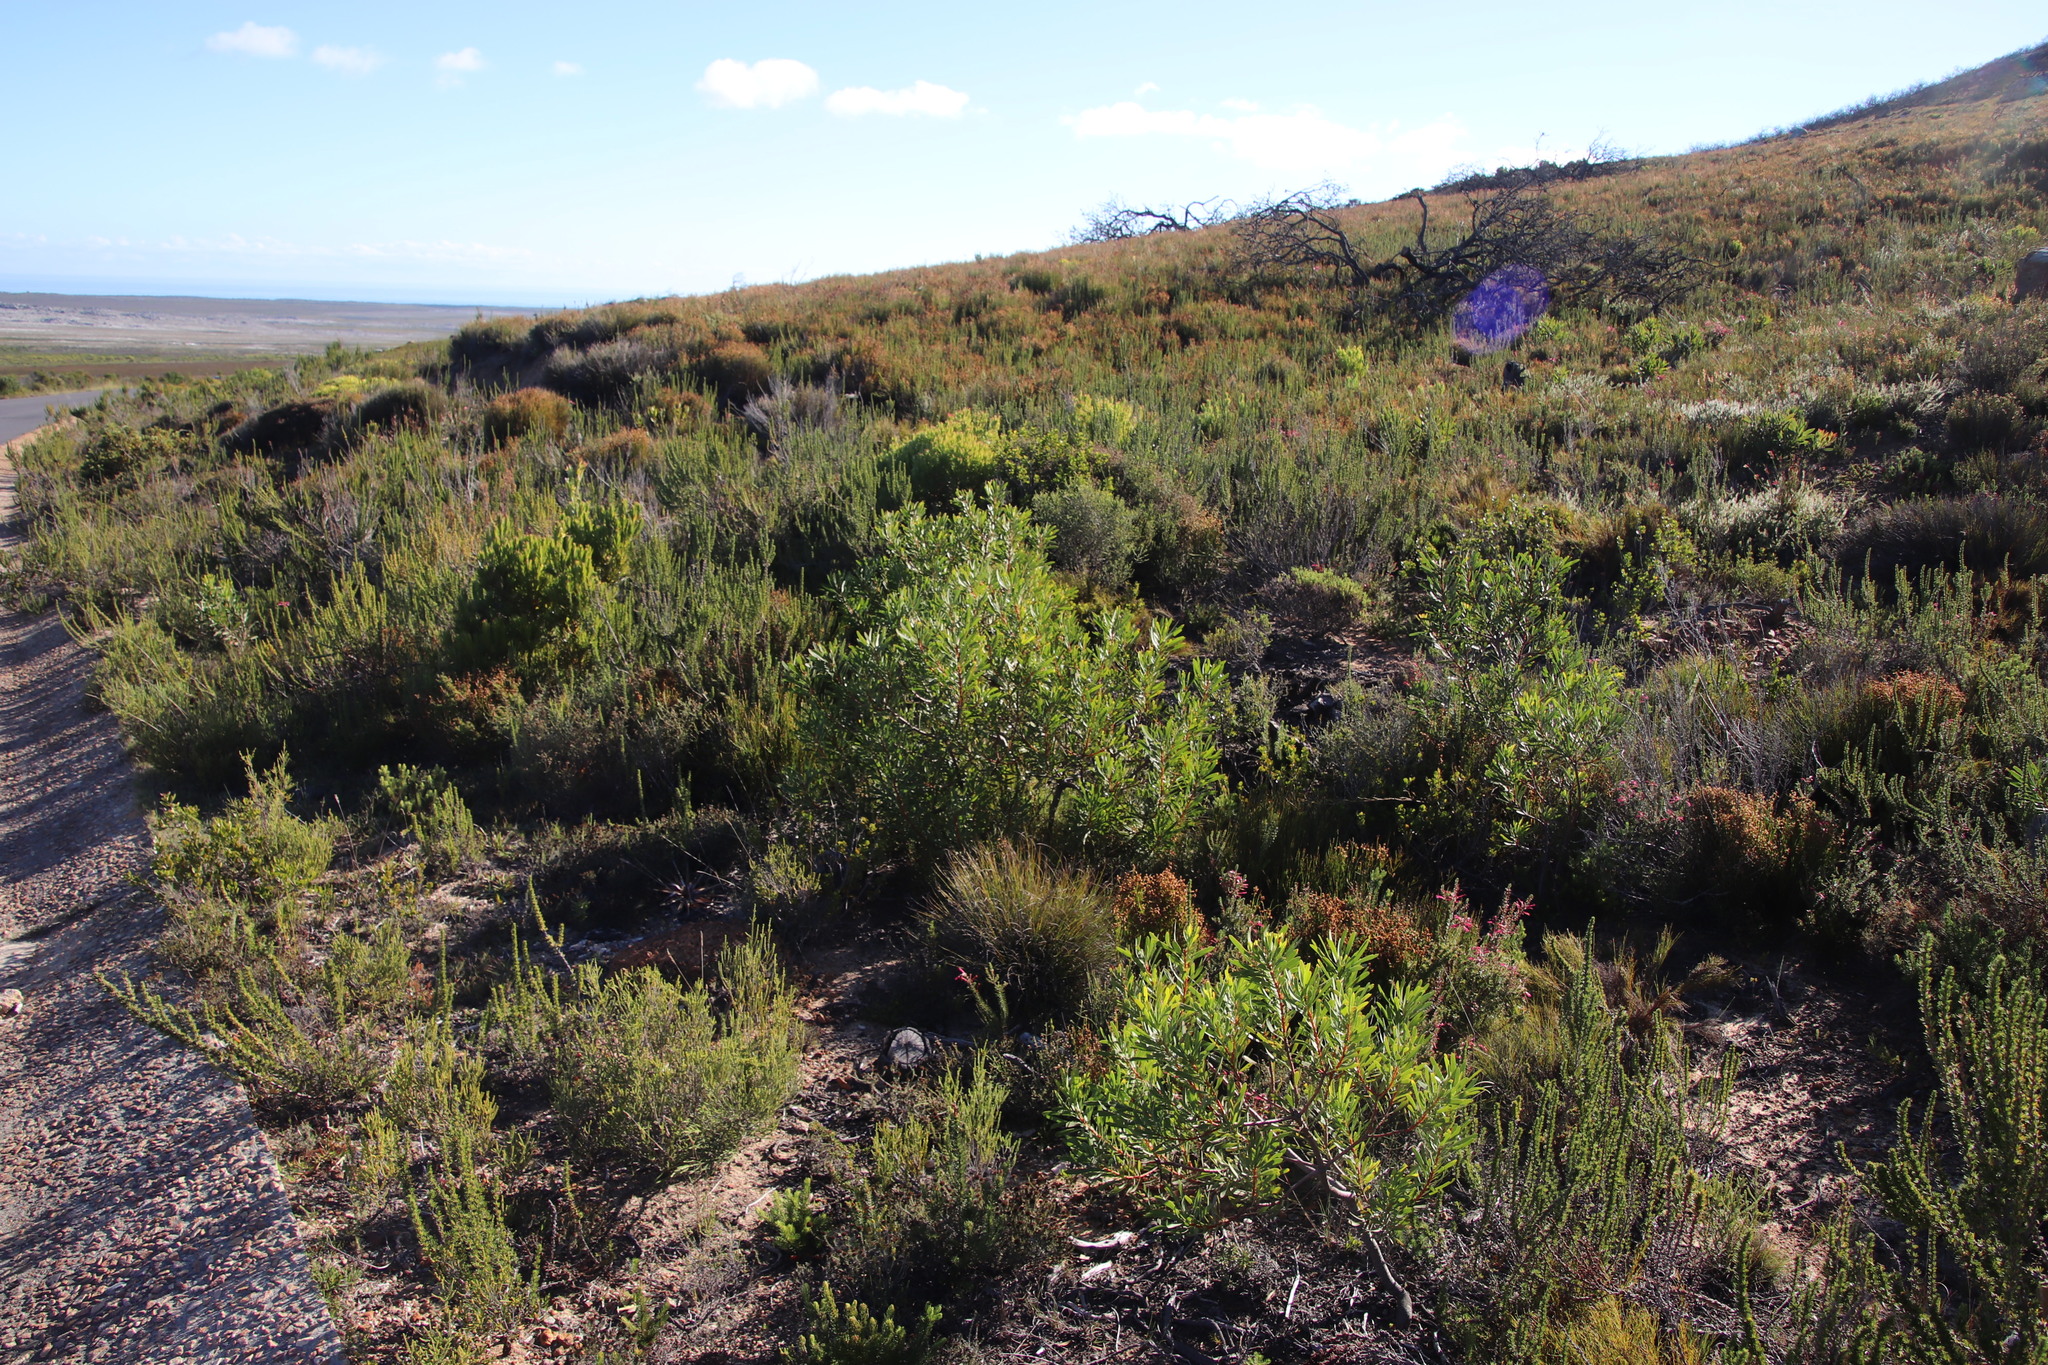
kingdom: Plantae
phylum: Tracheophyta
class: Magnoliopsida
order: Proteales
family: Proteaceae
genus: Protea
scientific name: Protea repens
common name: Sugarbush
